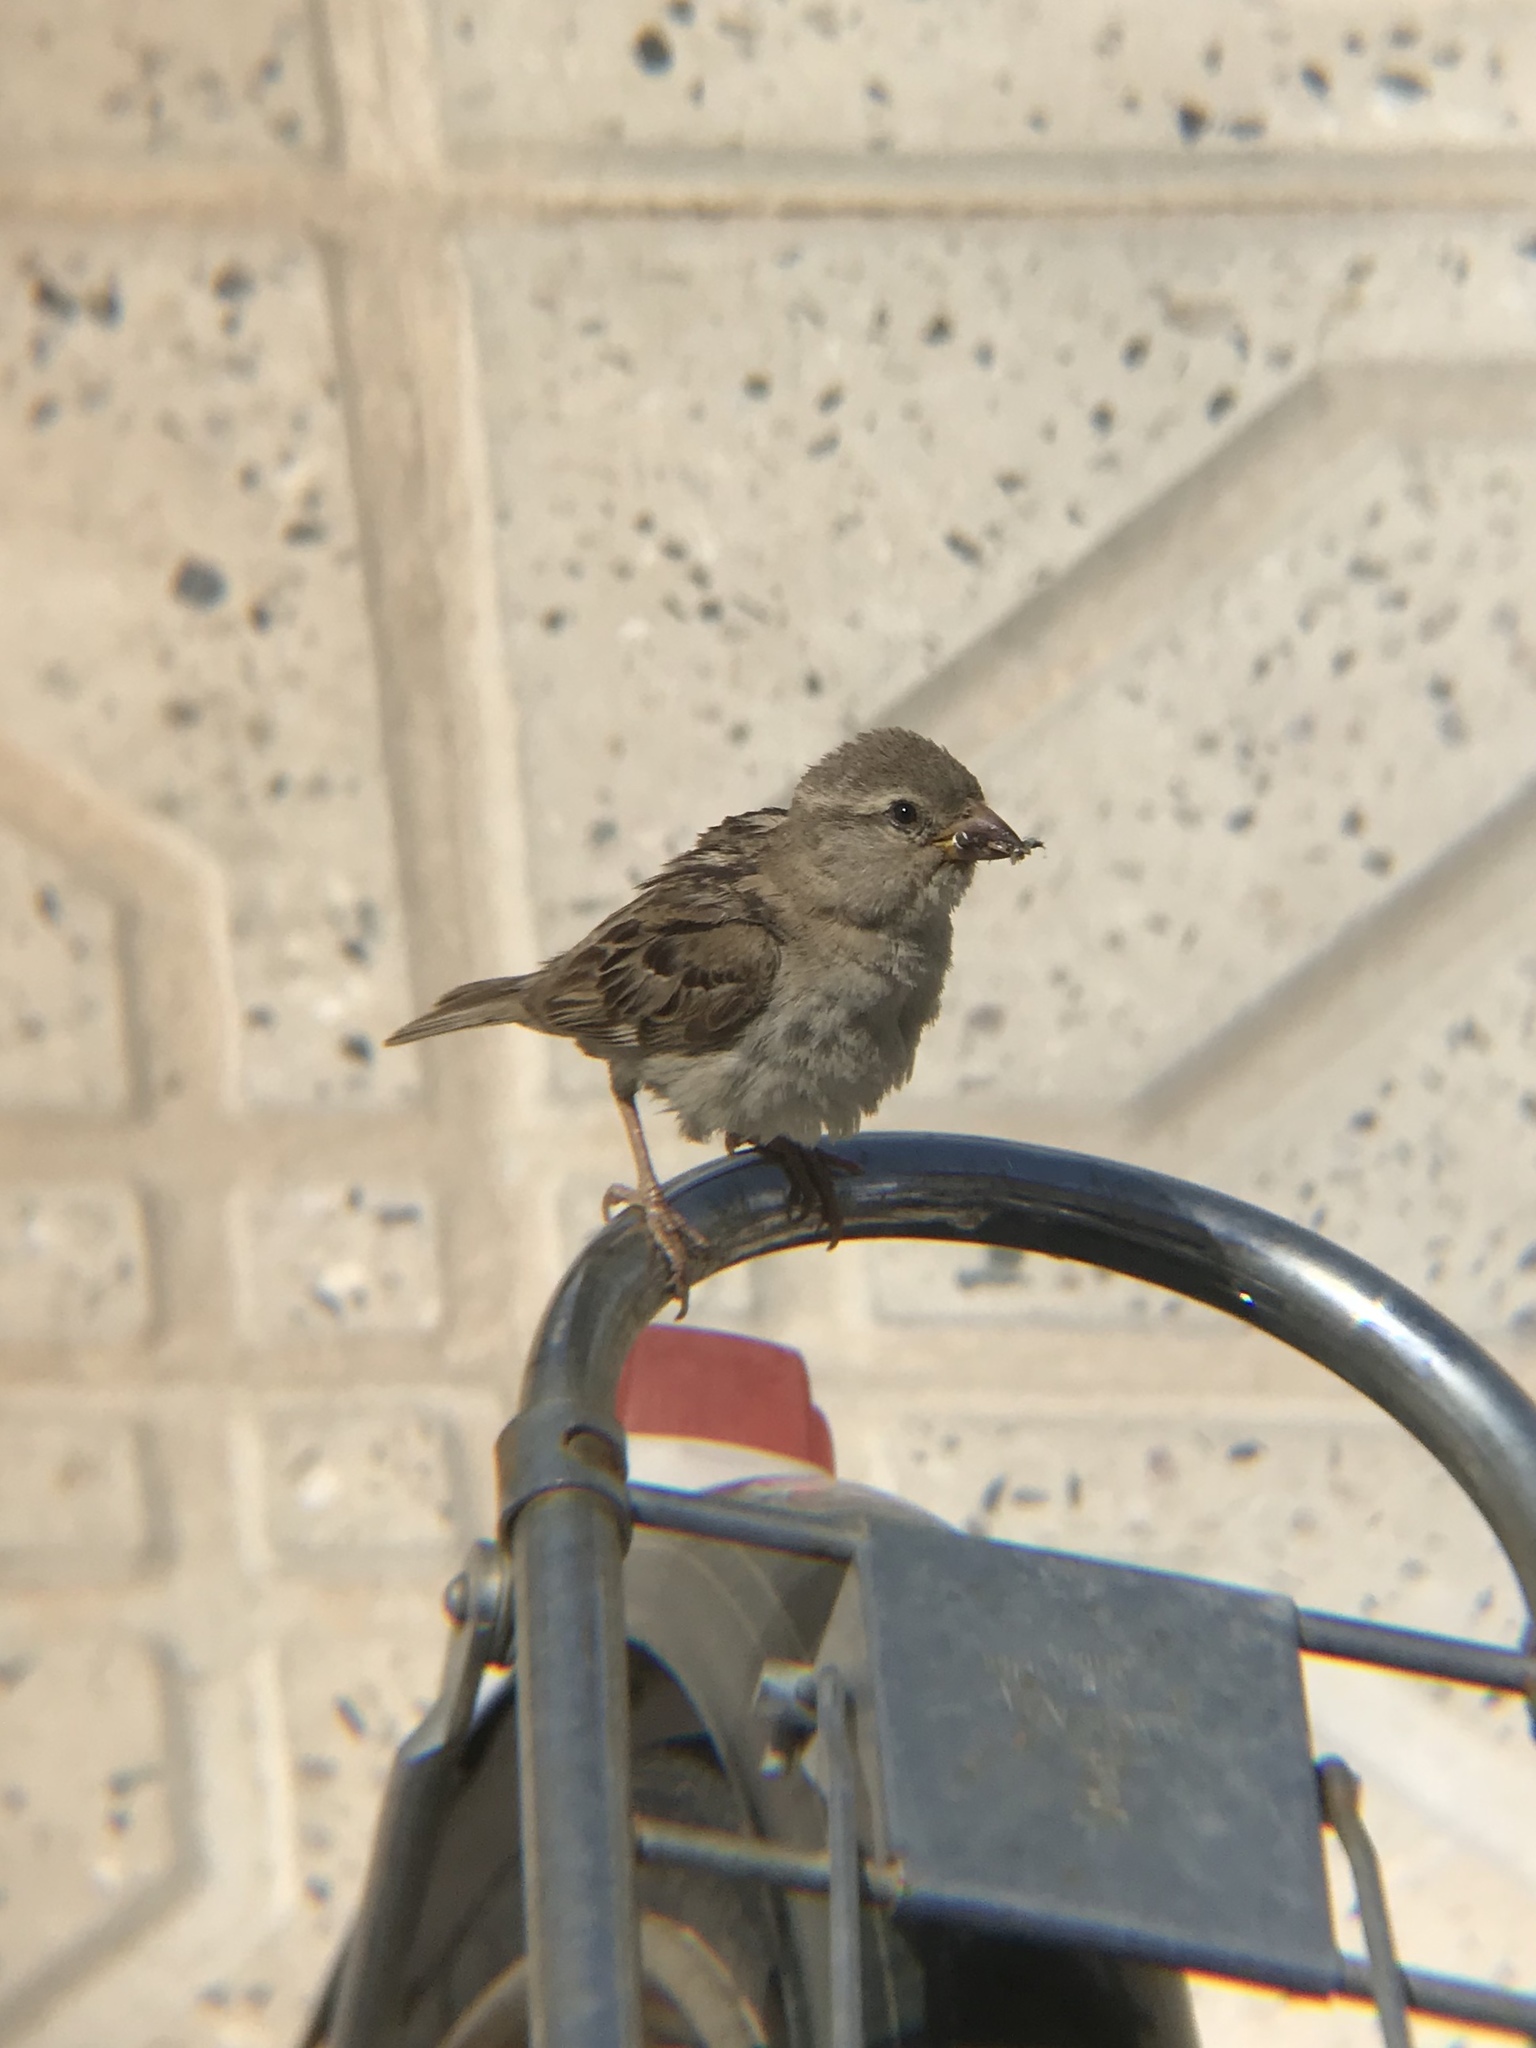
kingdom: Animalia
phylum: Chordata
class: Aves
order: Passeriformes
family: Passeridae
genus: Passer
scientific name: Passer domesticus
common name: House sparrow
